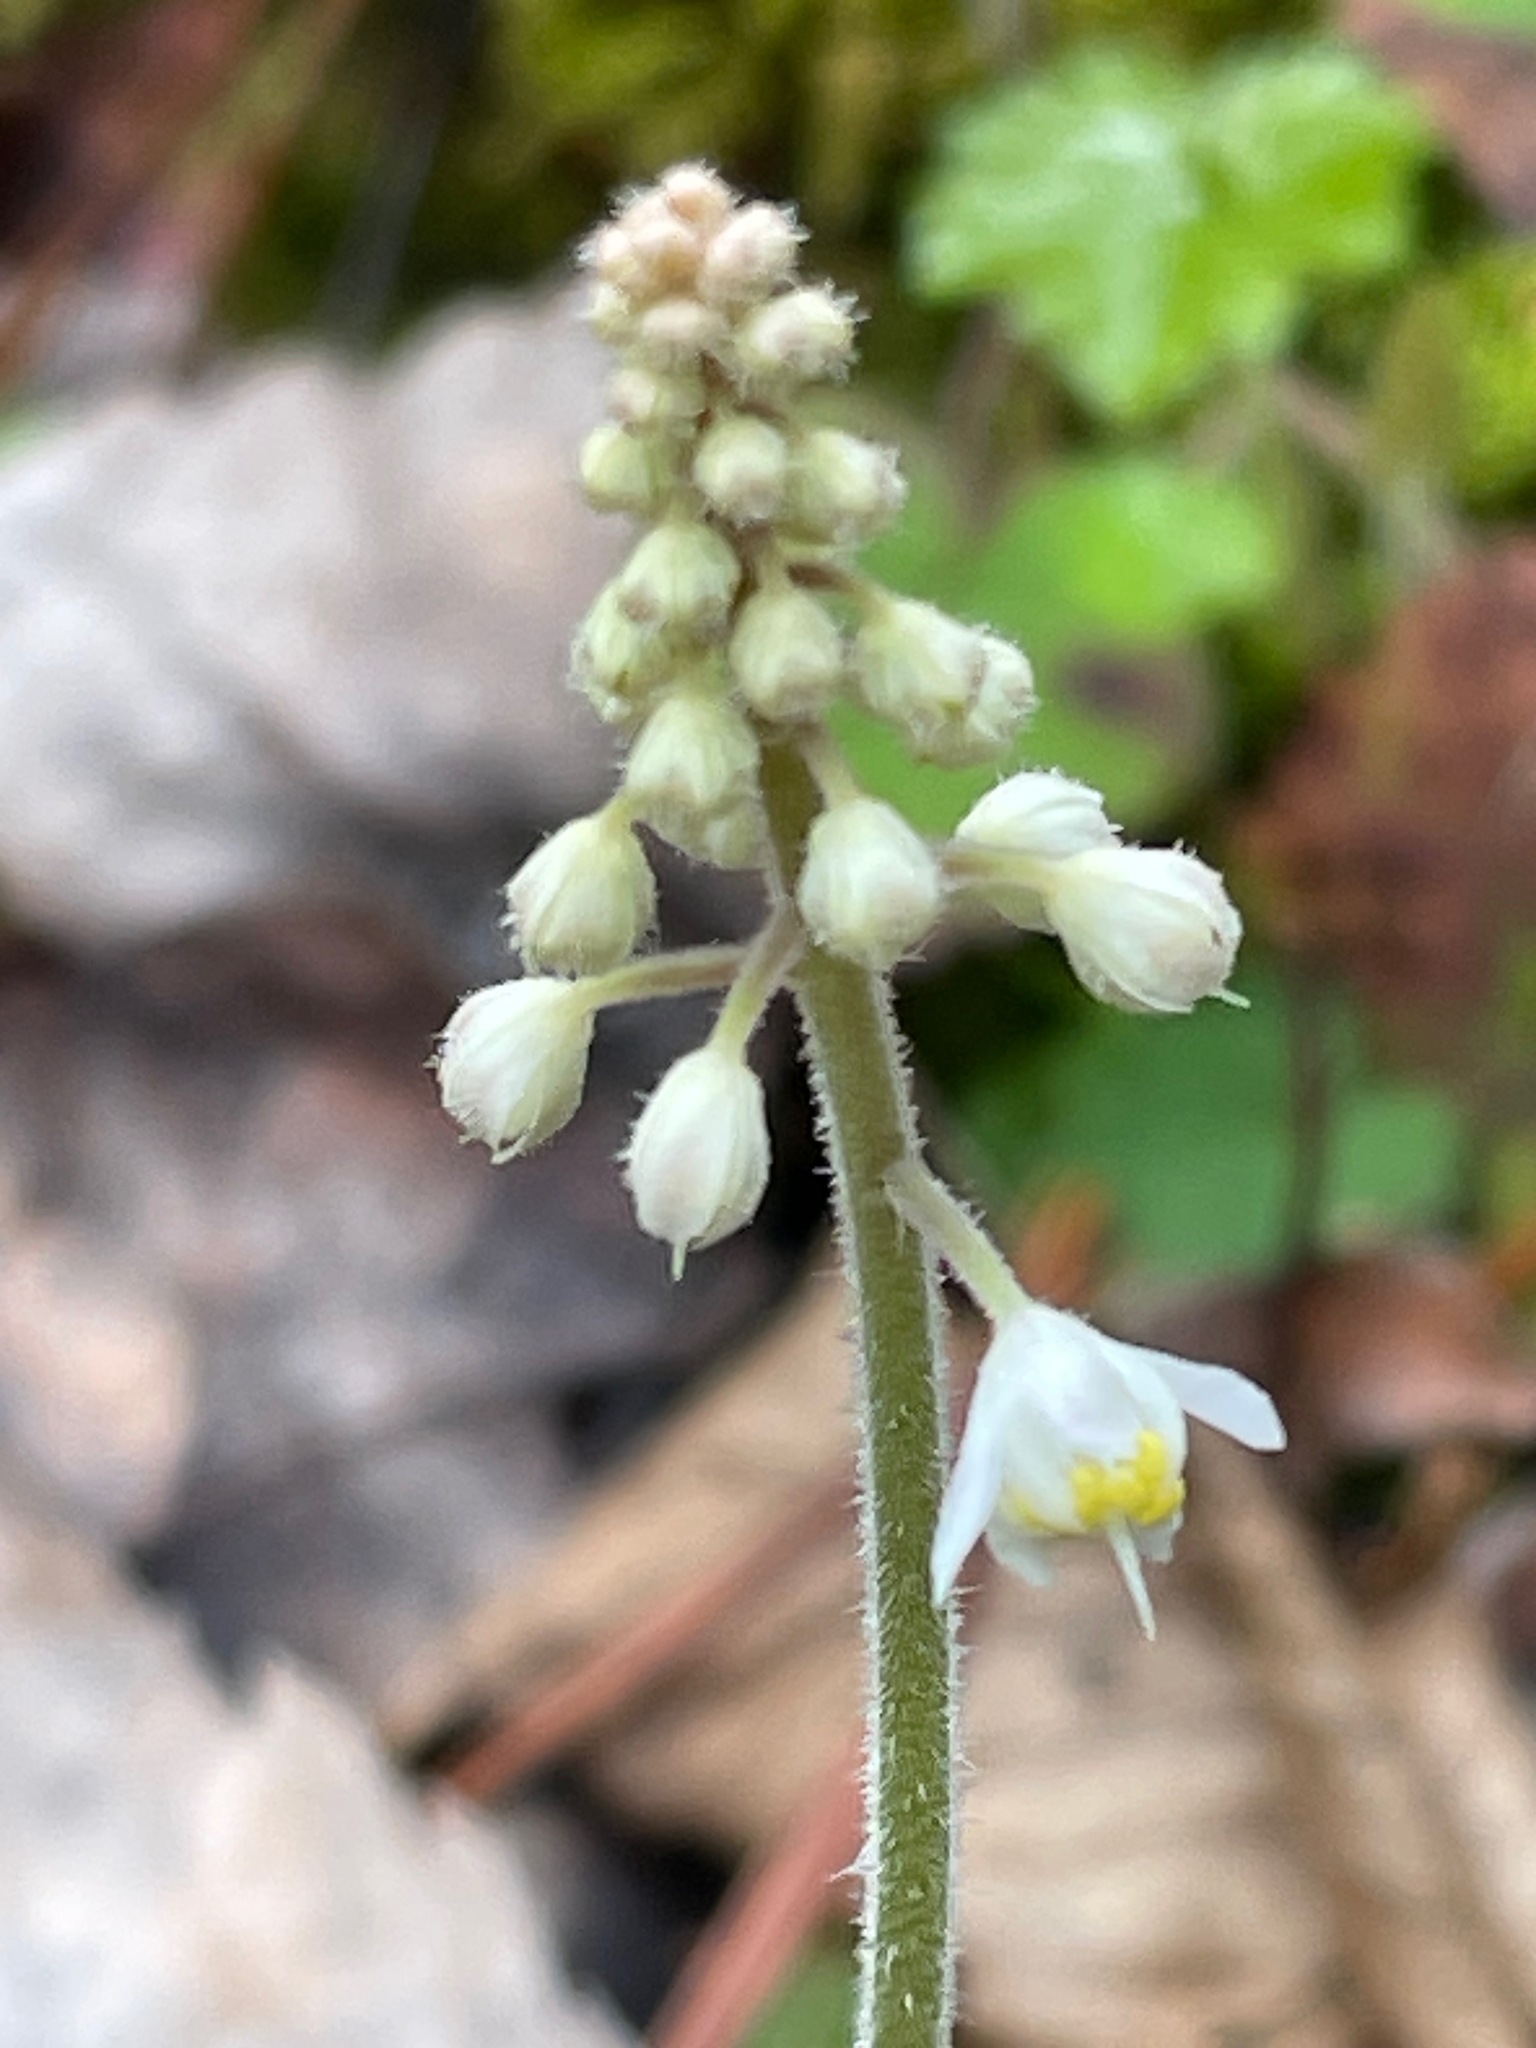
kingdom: Plantae
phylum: Tracheophyta
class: Magnoliopsida
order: Saxifragales
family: Saxifragaceae
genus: Tiarella
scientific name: Tiarella stolonifera
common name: Stoloniferous foamflower
